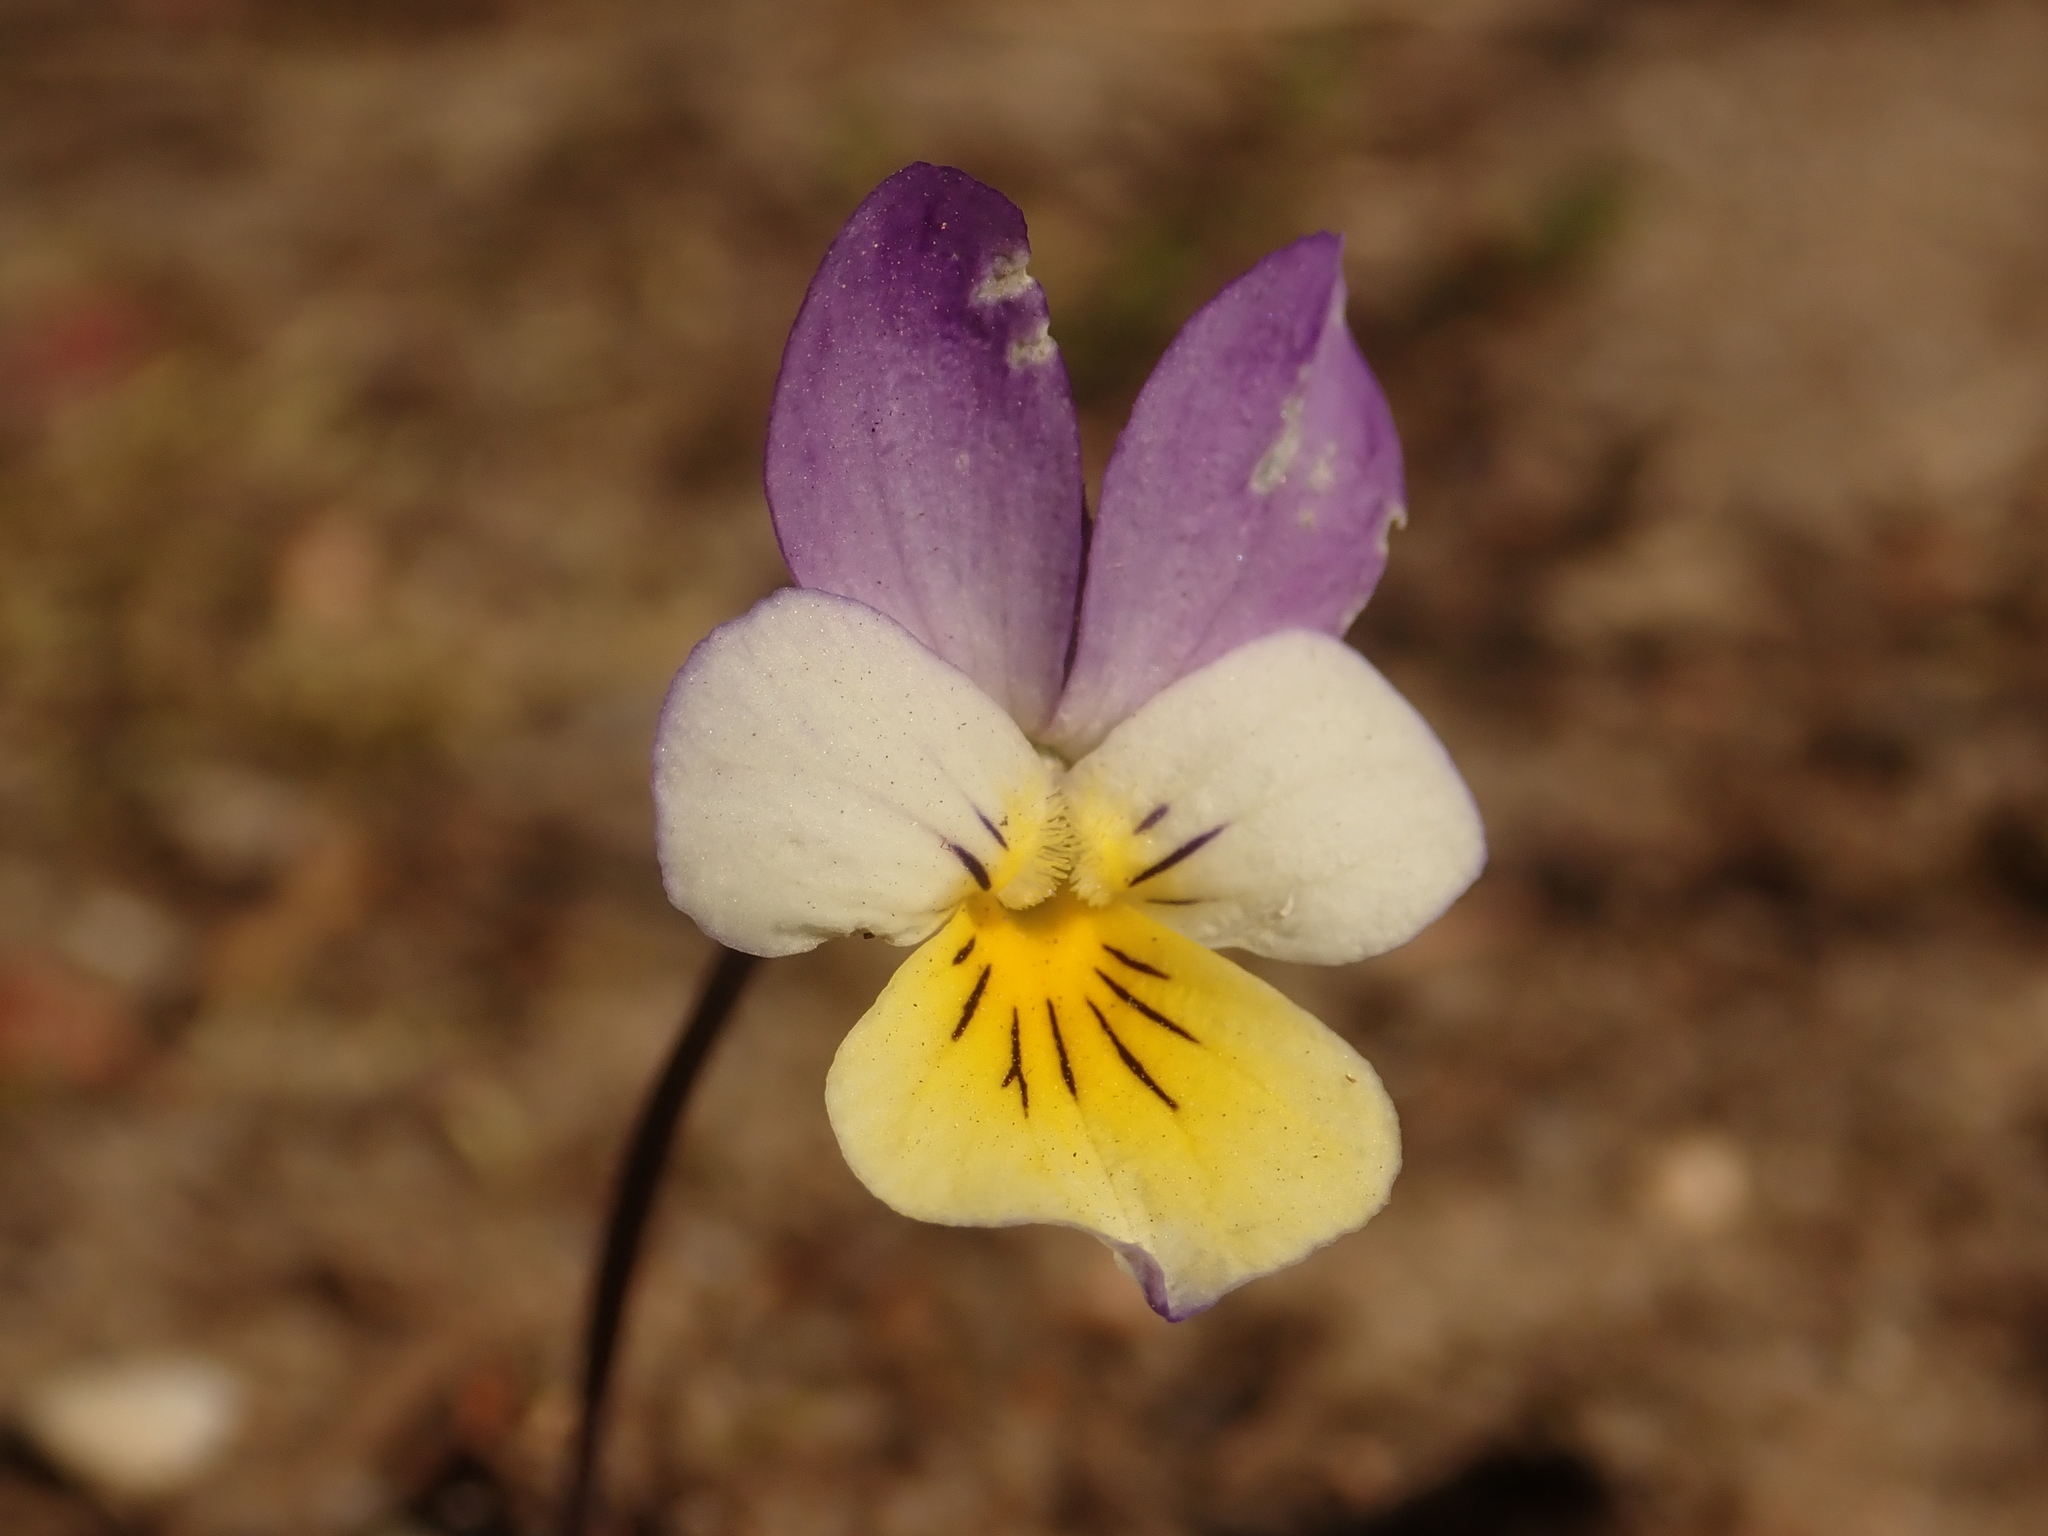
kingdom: Plantae
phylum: Tracheophyta
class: Magnoliopsida
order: Malpighiales
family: Violaceae
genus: Viola
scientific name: Viola tricolor
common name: Pansy
